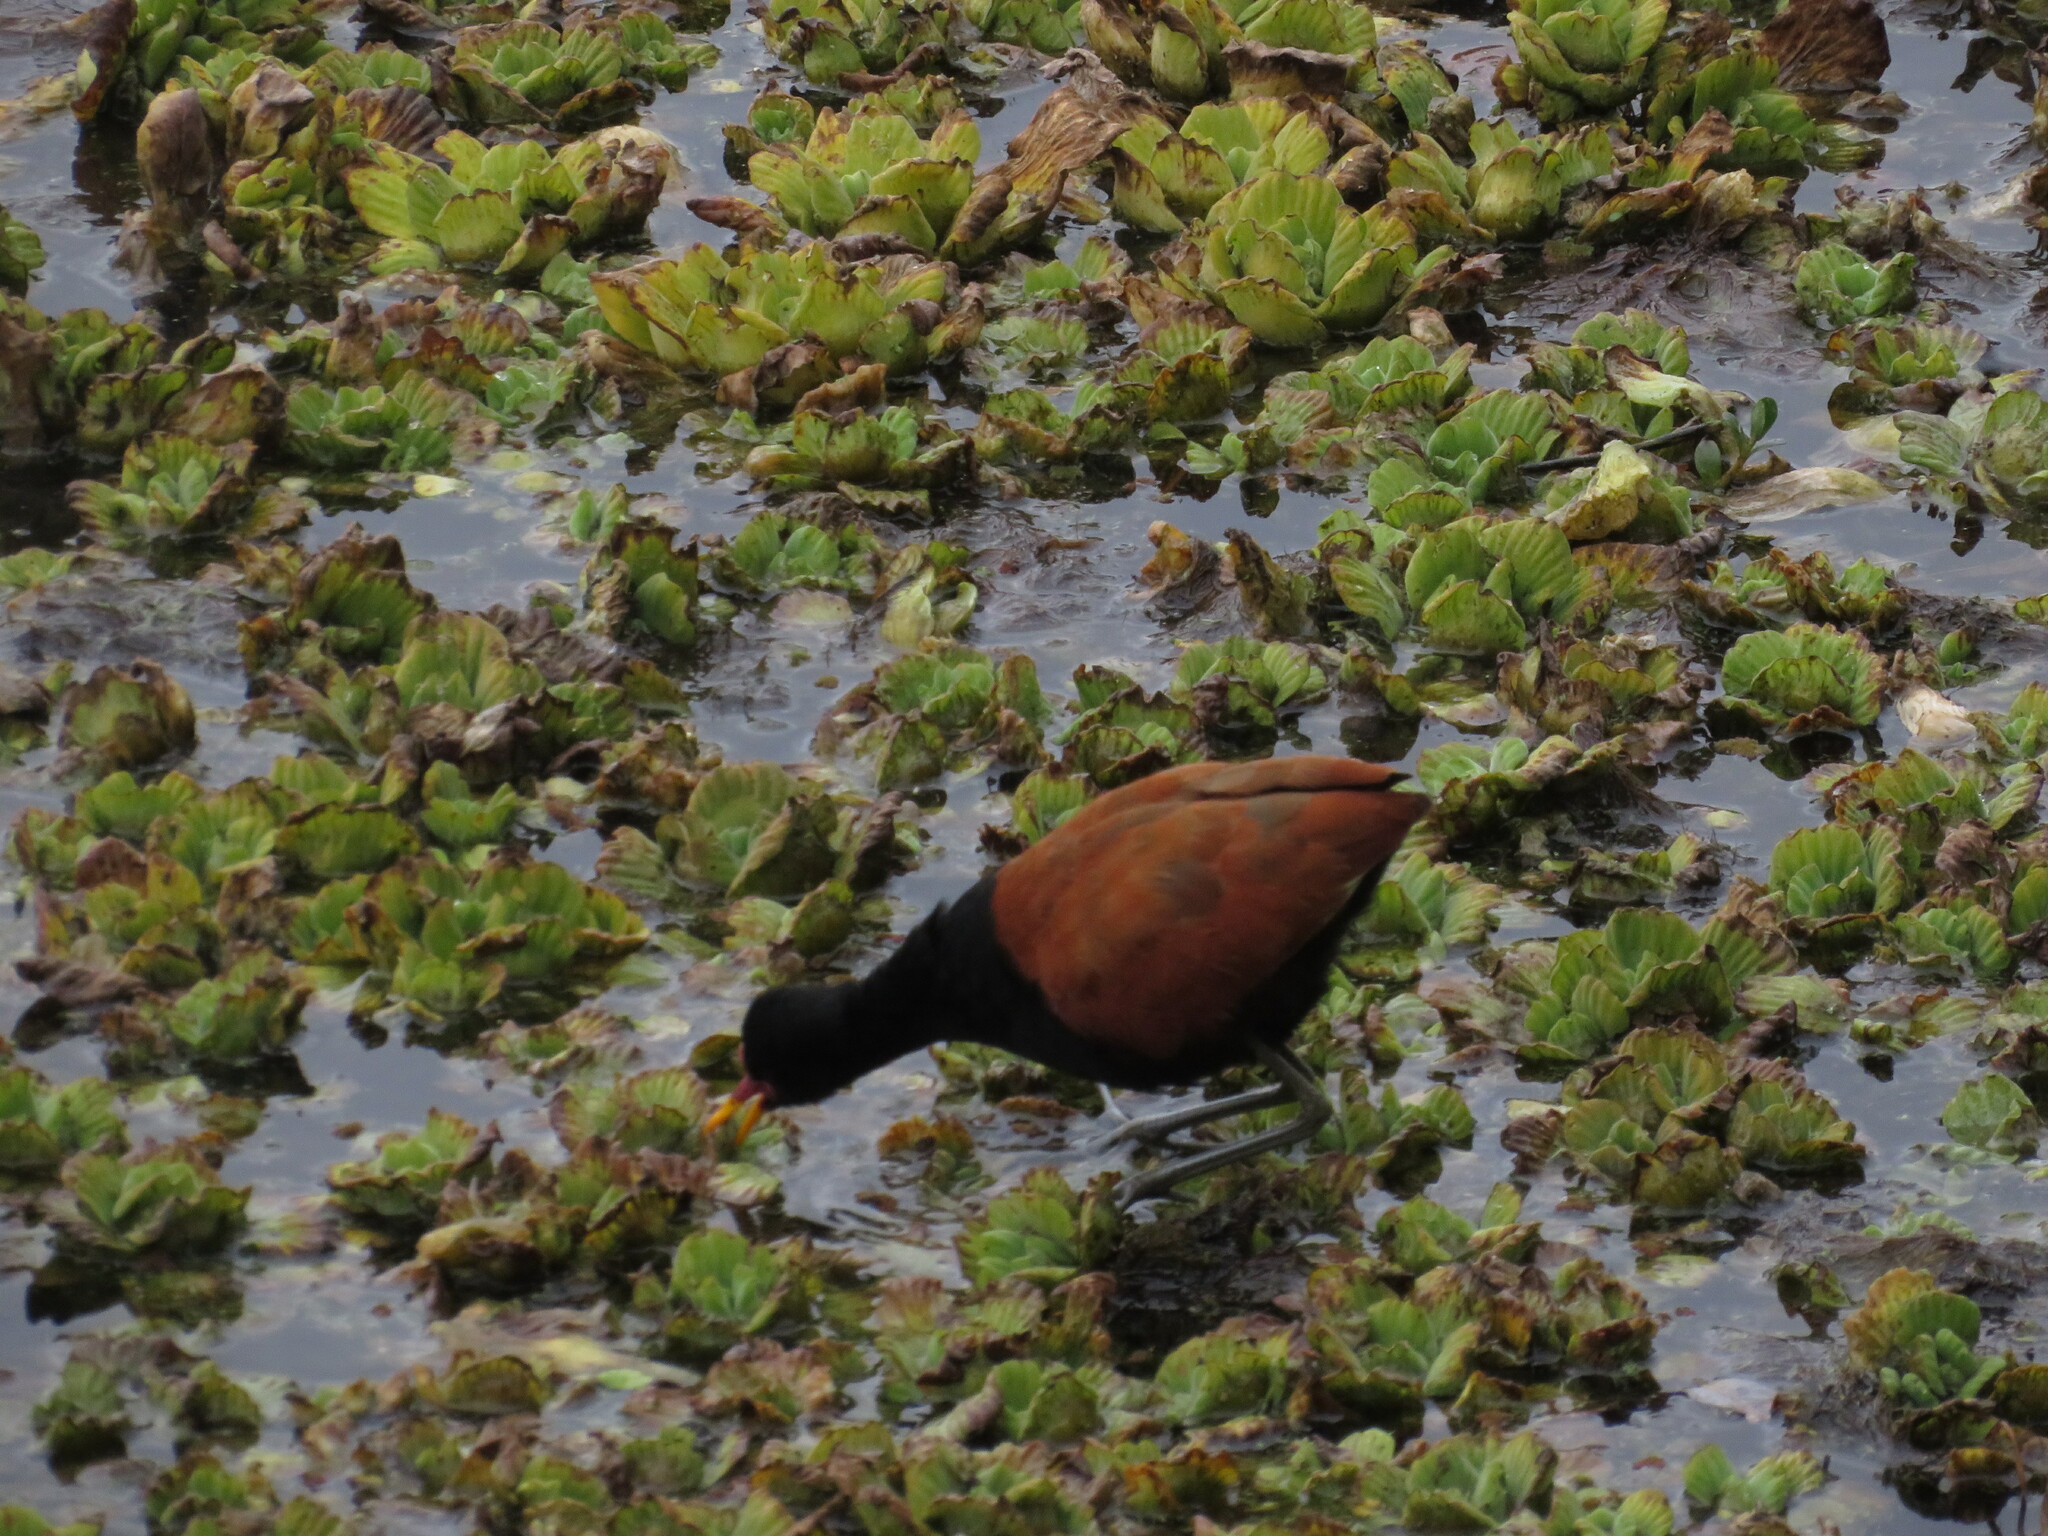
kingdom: Animalia
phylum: Chordata
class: Aves
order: Charadriiformes
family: Jacanidae
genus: Jacana
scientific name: Jacana jacana
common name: Wattled jacana
